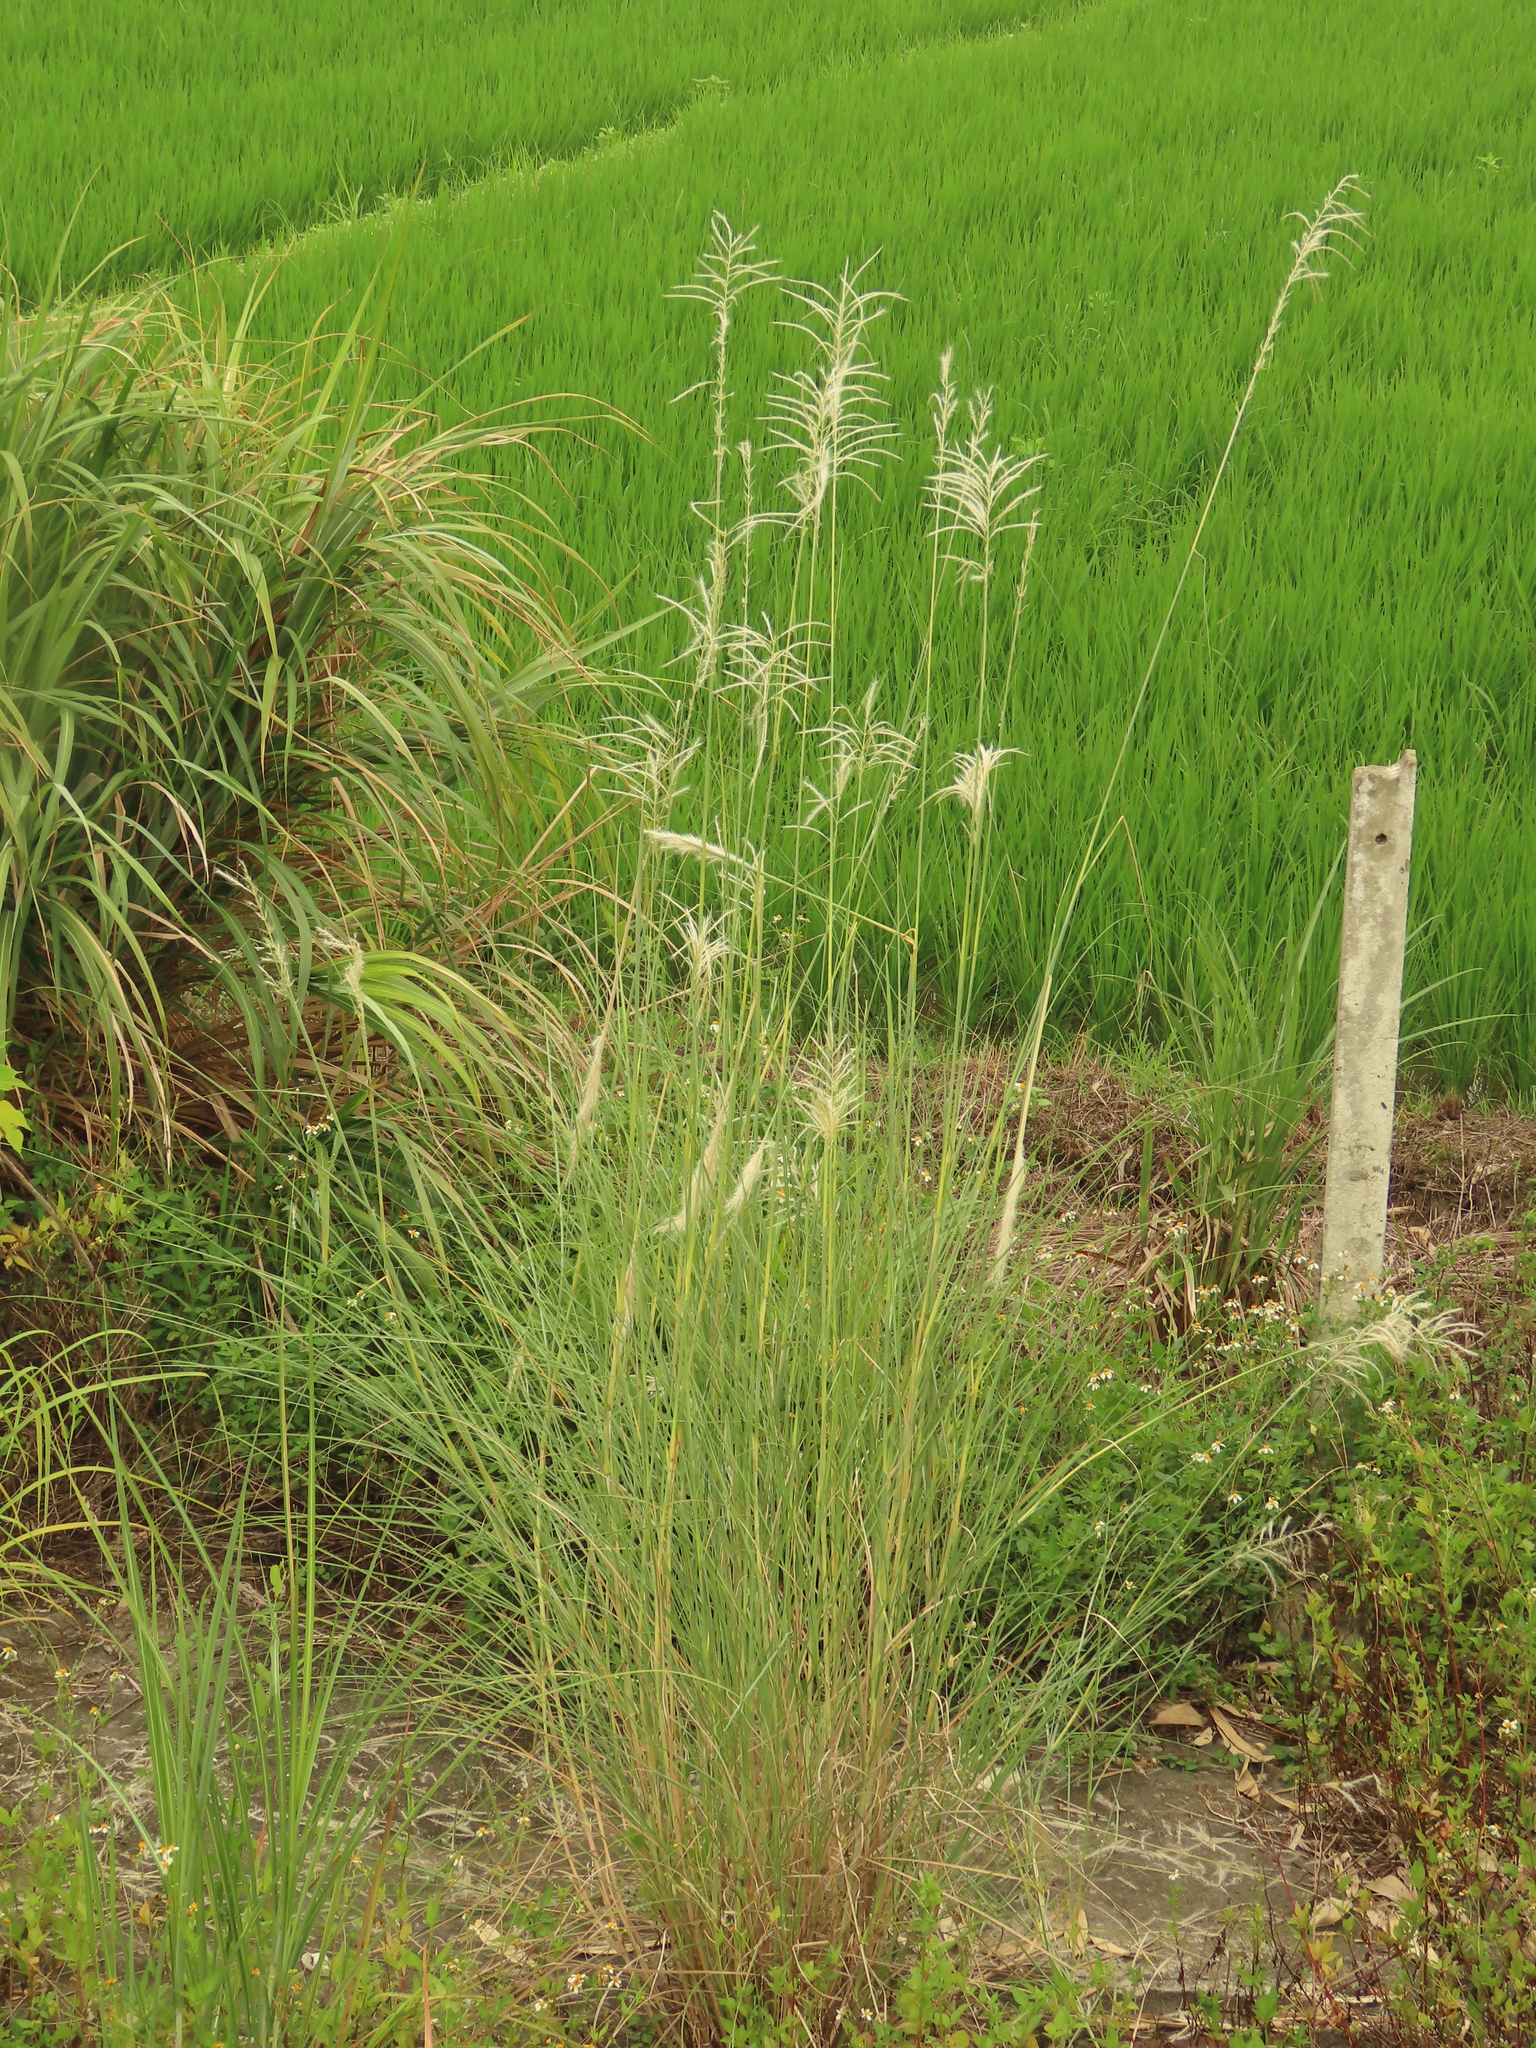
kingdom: Plantae
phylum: Tracheophyta
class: Liliopsida
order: Poales
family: Poaceae
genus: Saccharum
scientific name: Saccharum spontaneum
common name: Wild sugarcane
